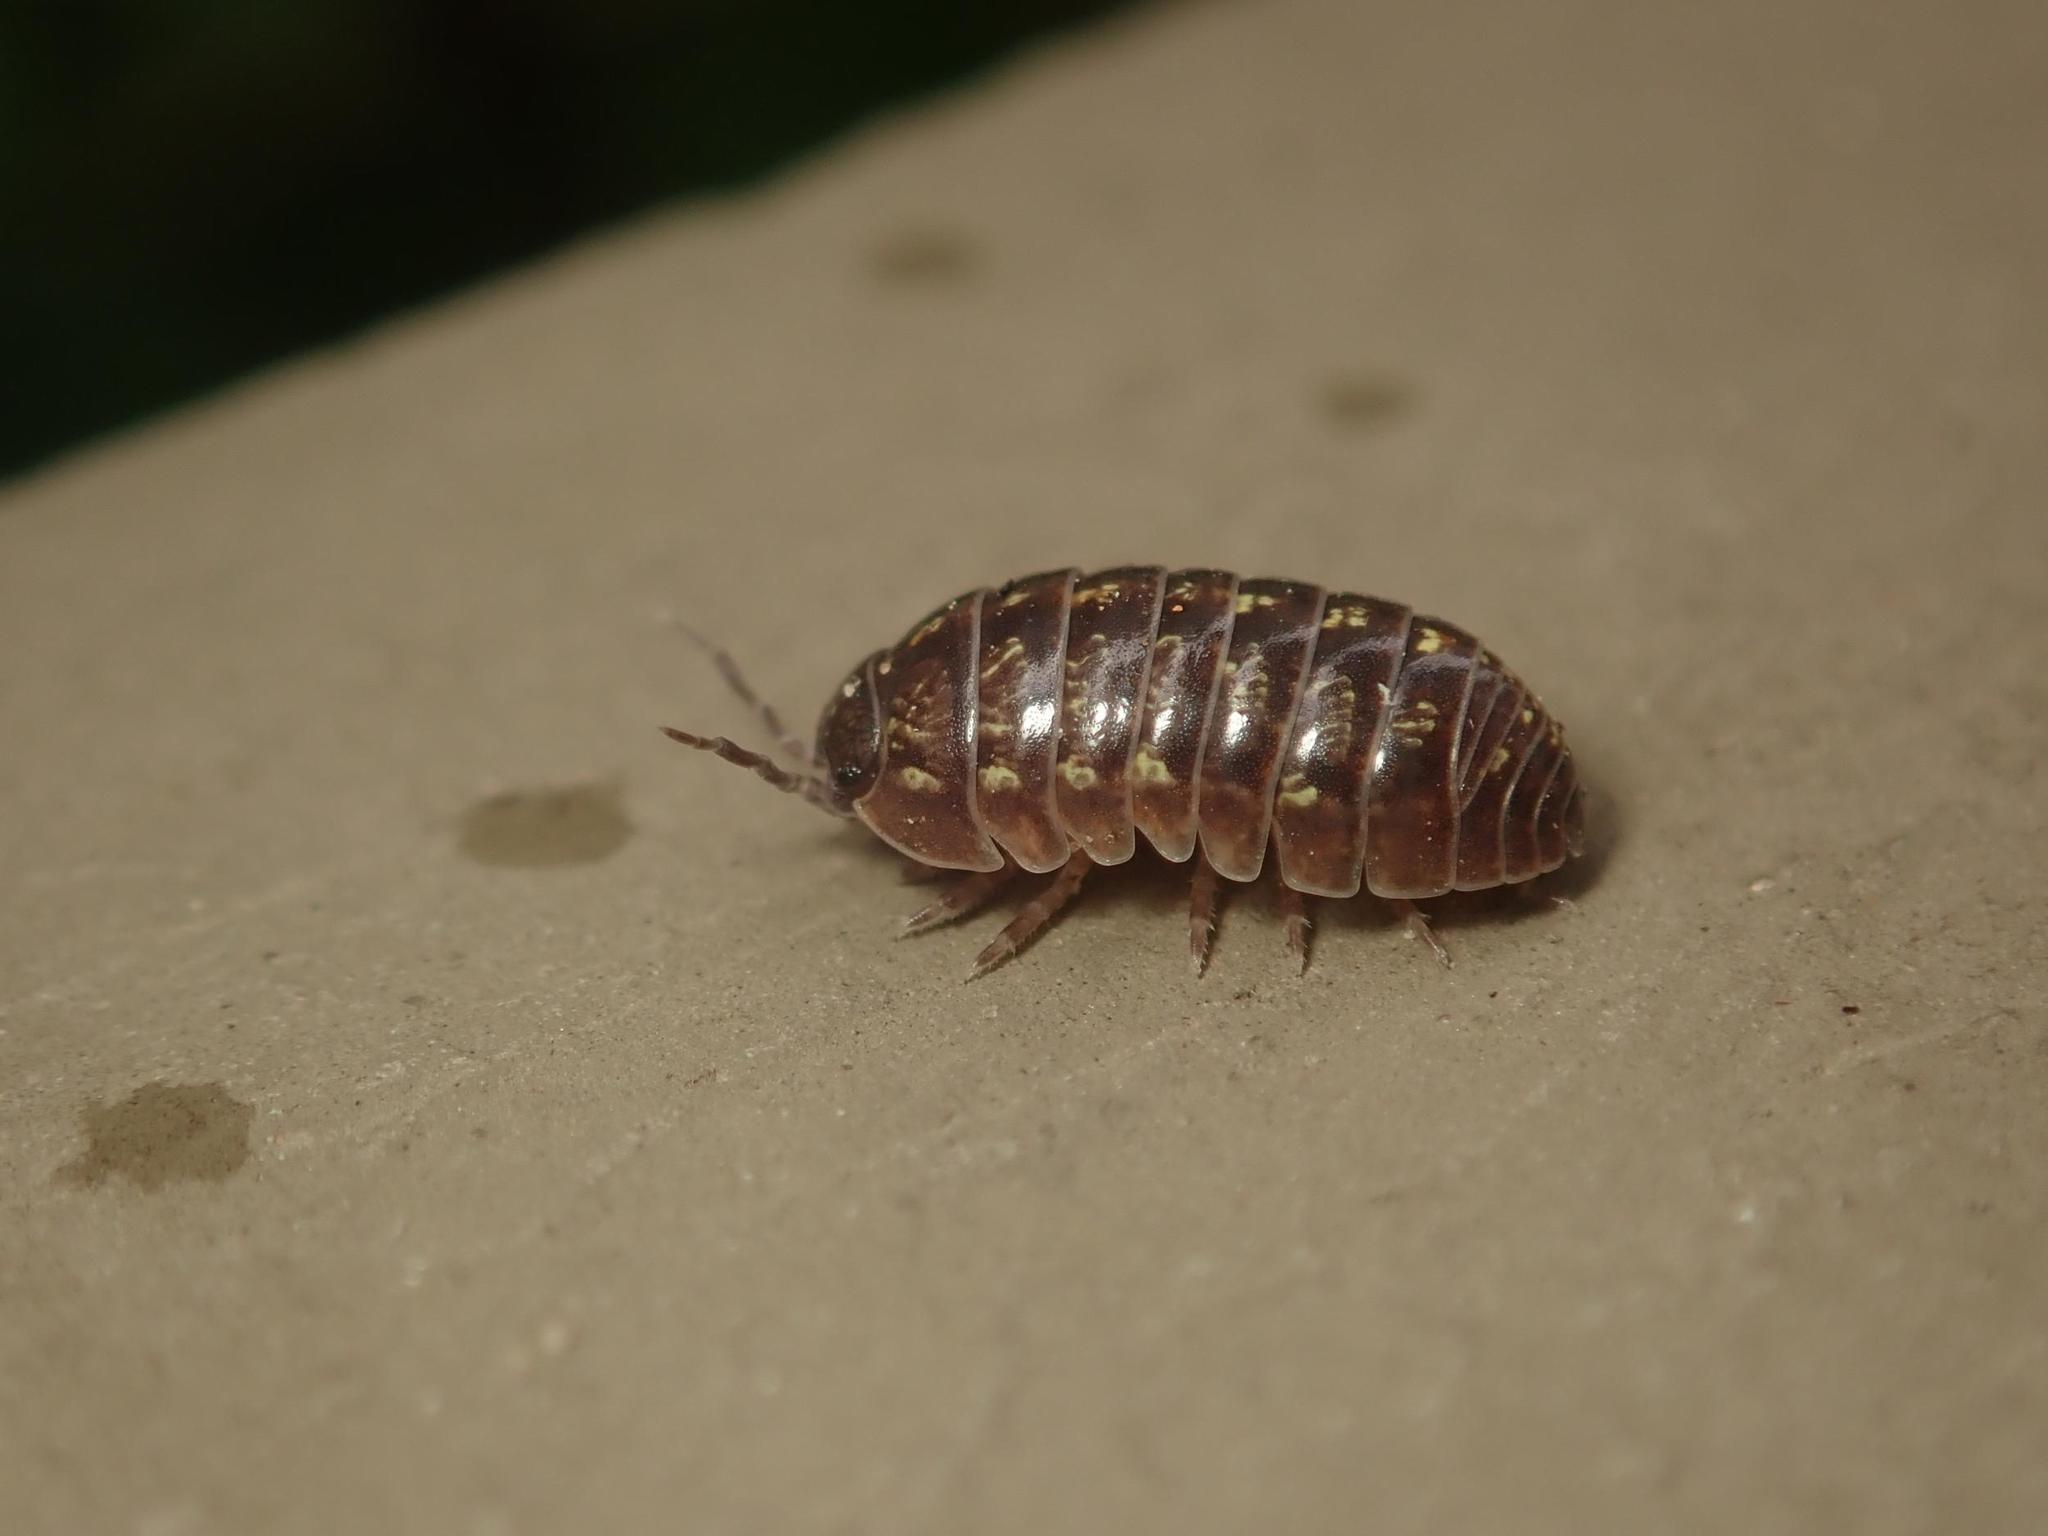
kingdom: Animalia
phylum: Arthropoda
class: Malacostraca
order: Isopoda
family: Armadillidiidae
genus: Armadillidium
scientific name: Armadillidium vulgare
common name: Common pill woodlouse
